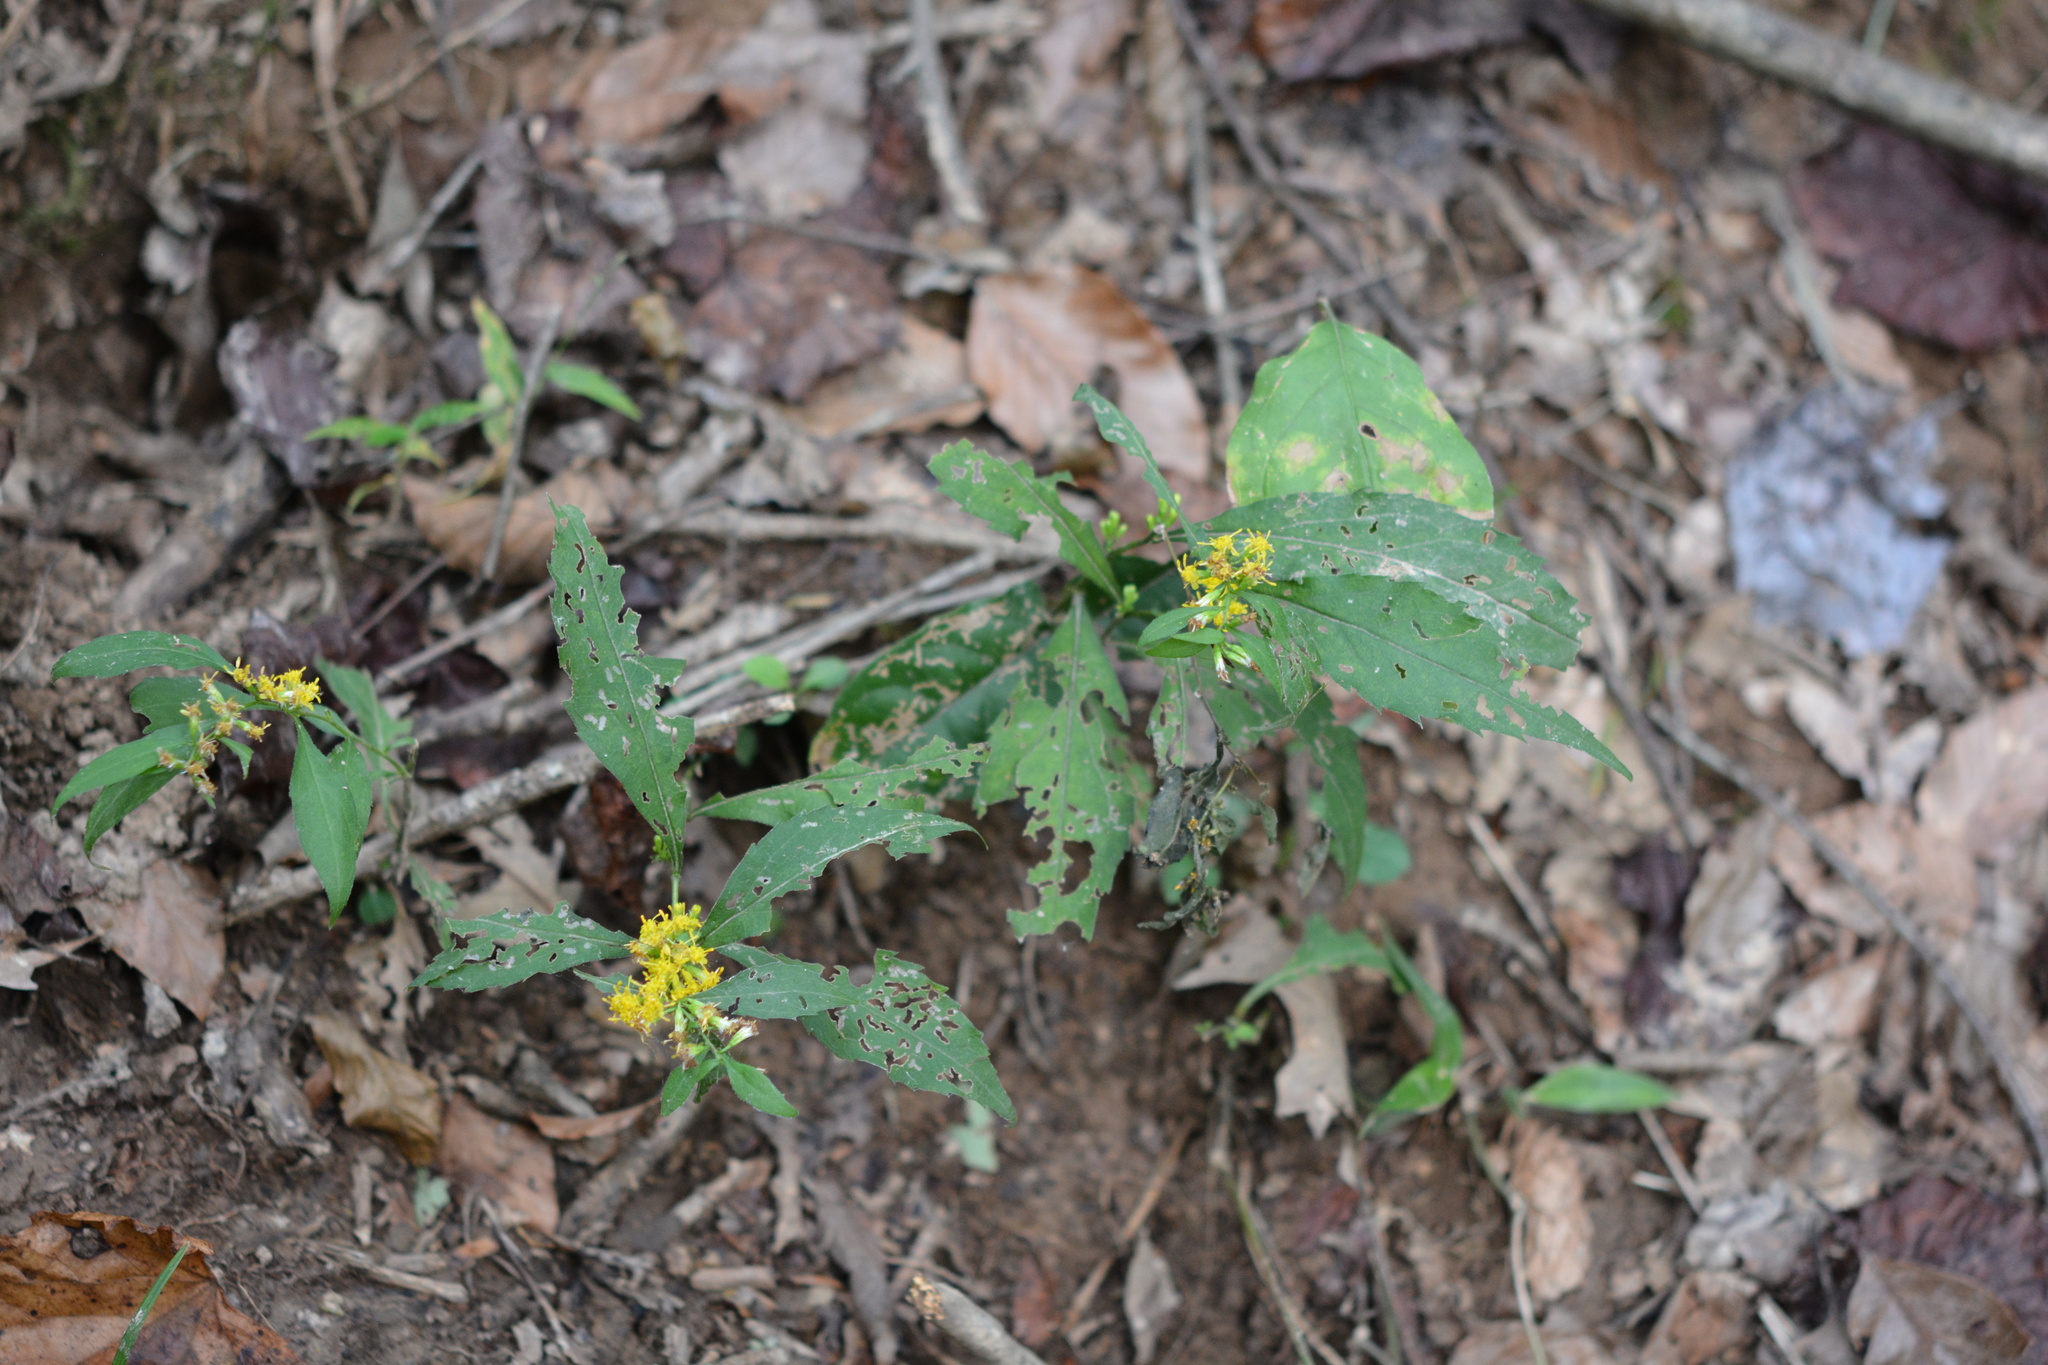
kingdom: Plantae
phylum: Tracheophyta
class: Magnoliopsida
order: Asterales
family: Asteraceae
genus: Solidago
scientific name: Solidago caesia
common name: Woodland goldenrod
